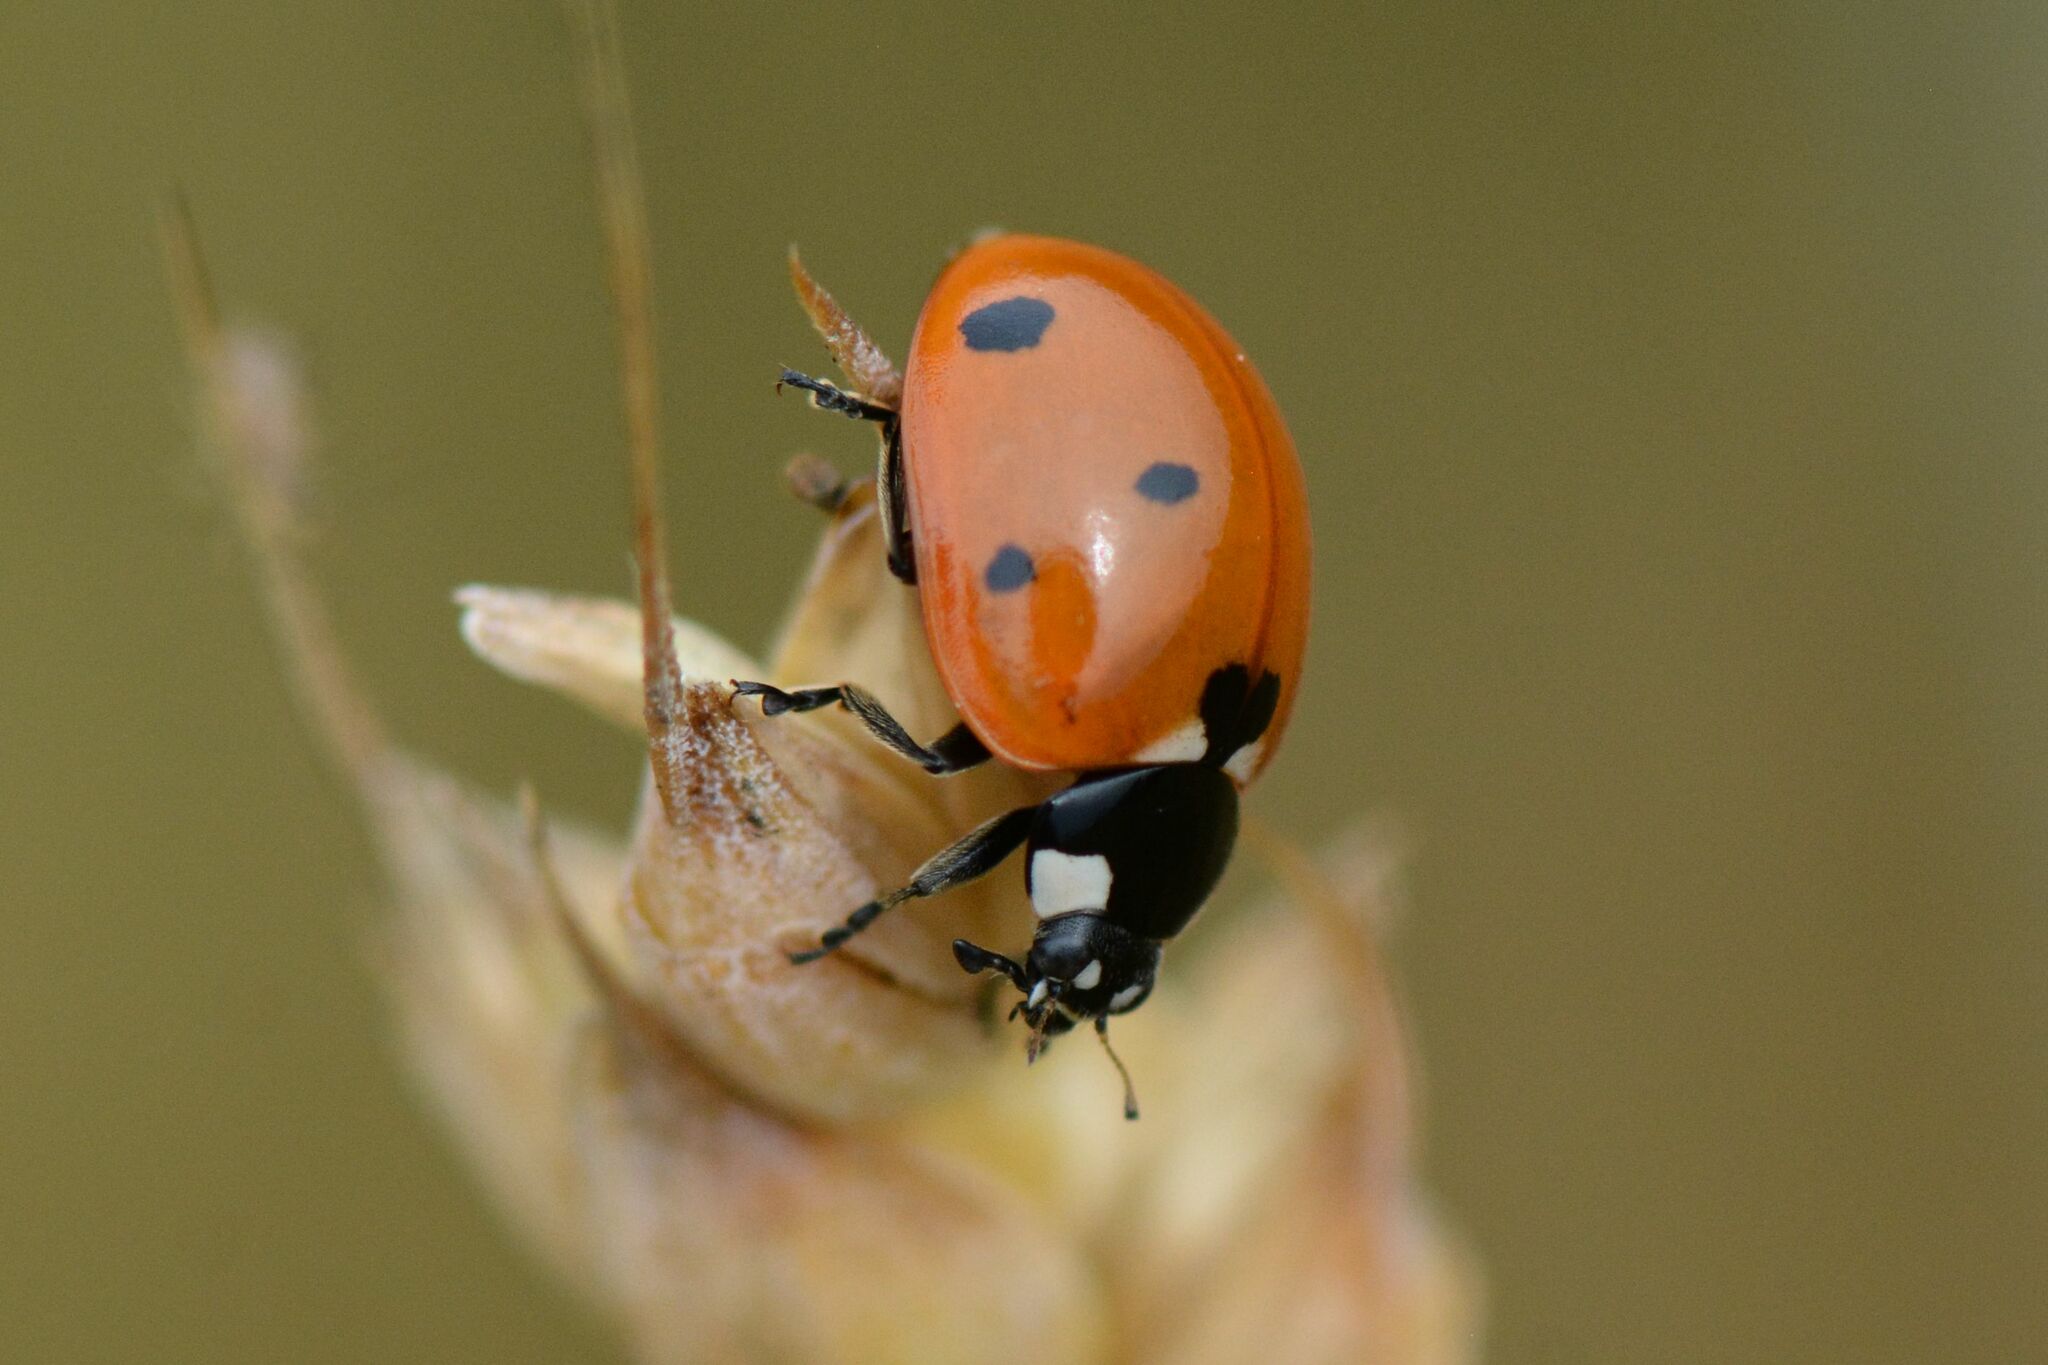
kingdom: Animalia
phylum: Arthropoda
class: Insecta
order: Coleoptera
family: Coccinellidae
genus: Coccinella
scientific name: Coccinella septempunctata
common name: Sevenspotted lady beetle
